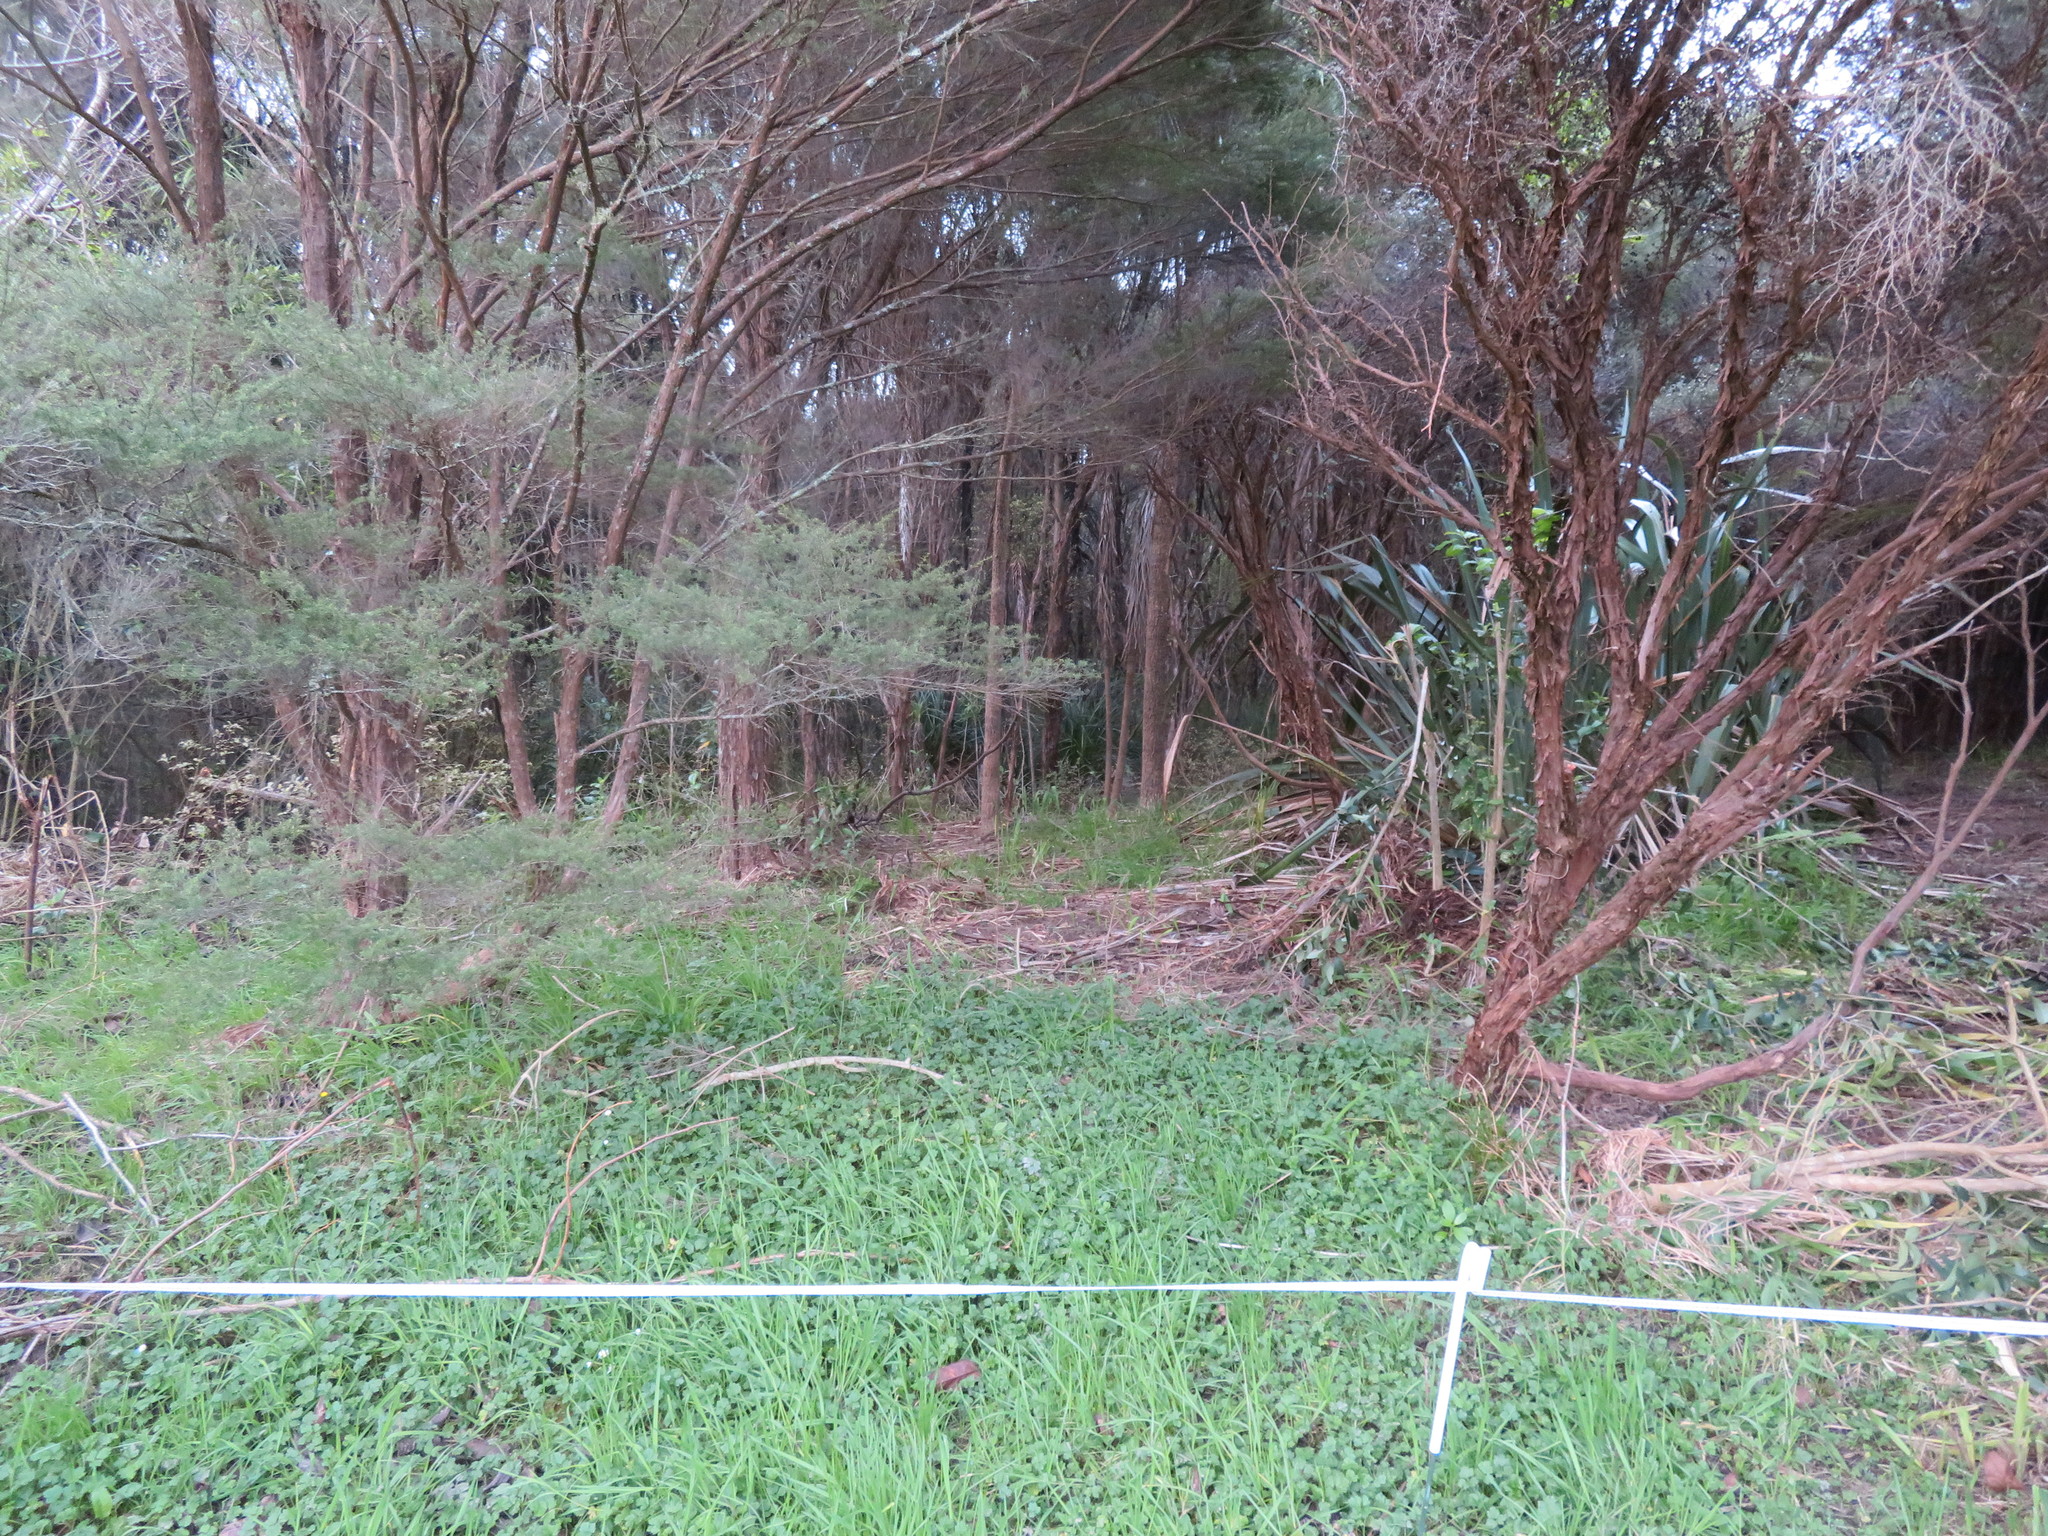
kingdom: Plantae
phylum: Tracheophyta
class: Magnoliopsida
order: Ranunculales
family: Ranunculaceae
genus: Ranunculus
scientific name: Ranunculus repens
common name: Creeping buttercup
